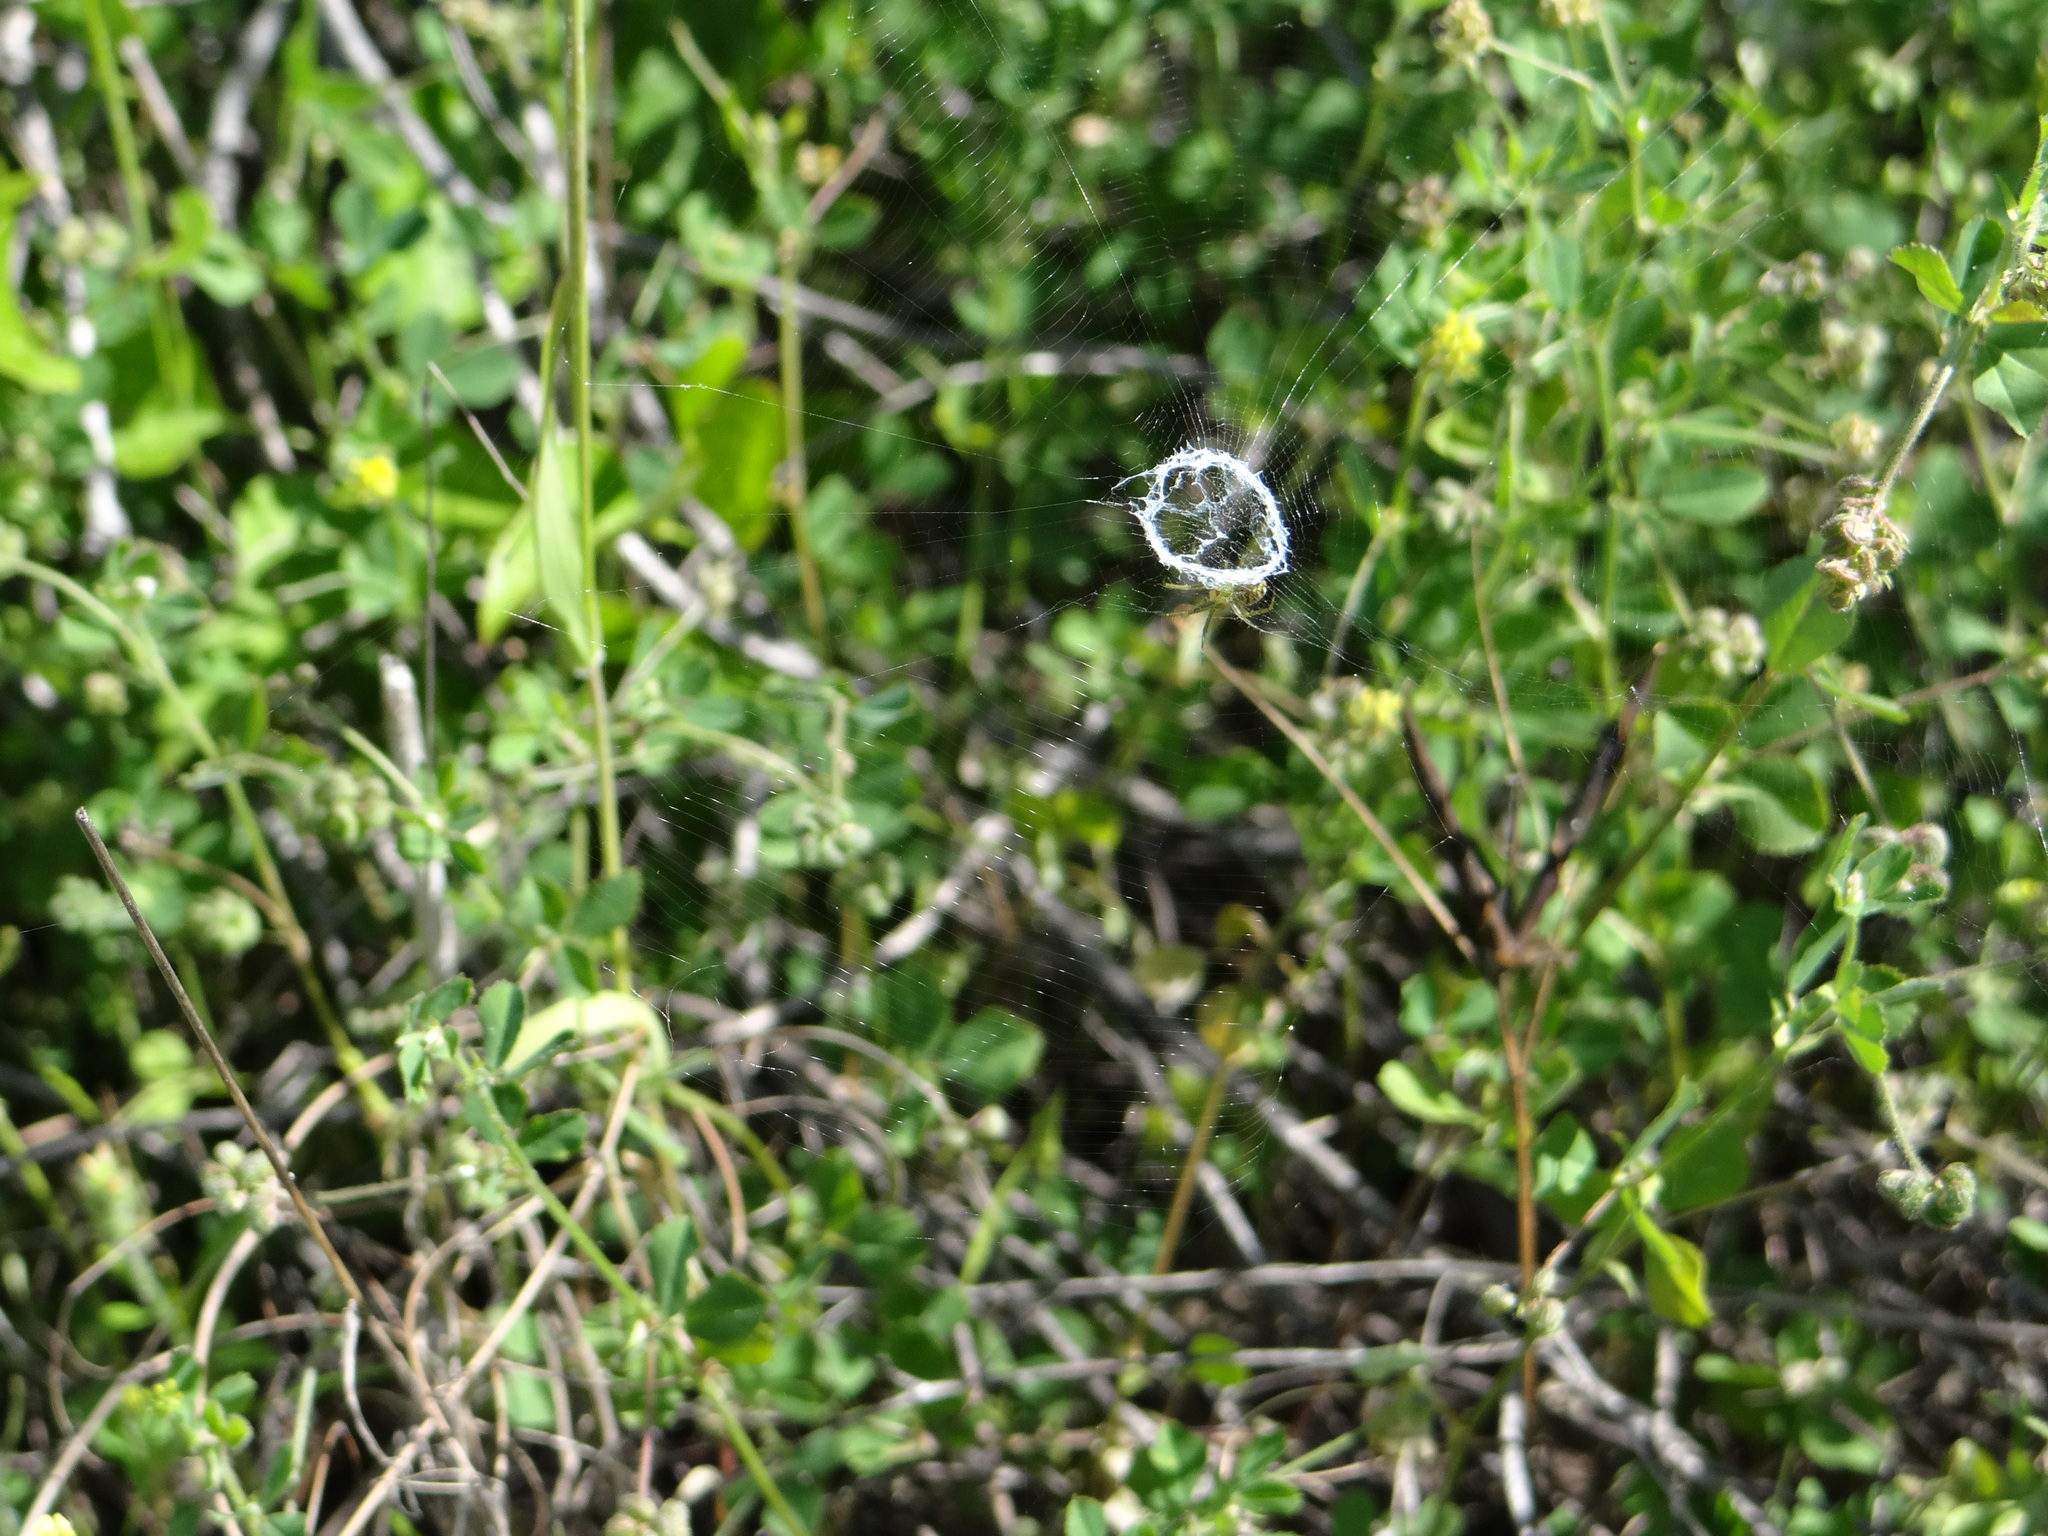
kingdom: Animalia
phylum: Arthropoda
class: Arachnida
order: Araneae
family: Araneidae
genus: Mangora
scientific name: Mangora gibberosa
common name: Lined orbweaver
